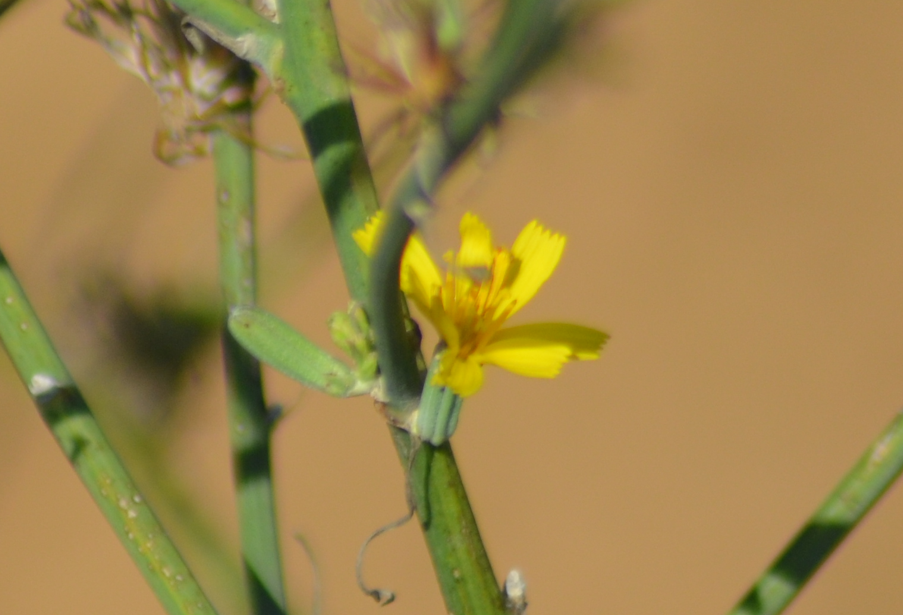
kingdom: Plantae
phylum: Tracheophyta
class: Magnoliopsida
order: Asterales
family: Asteraceae
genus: Chondrilla
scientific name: Chondrilla juncea
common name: Skeleton weed
